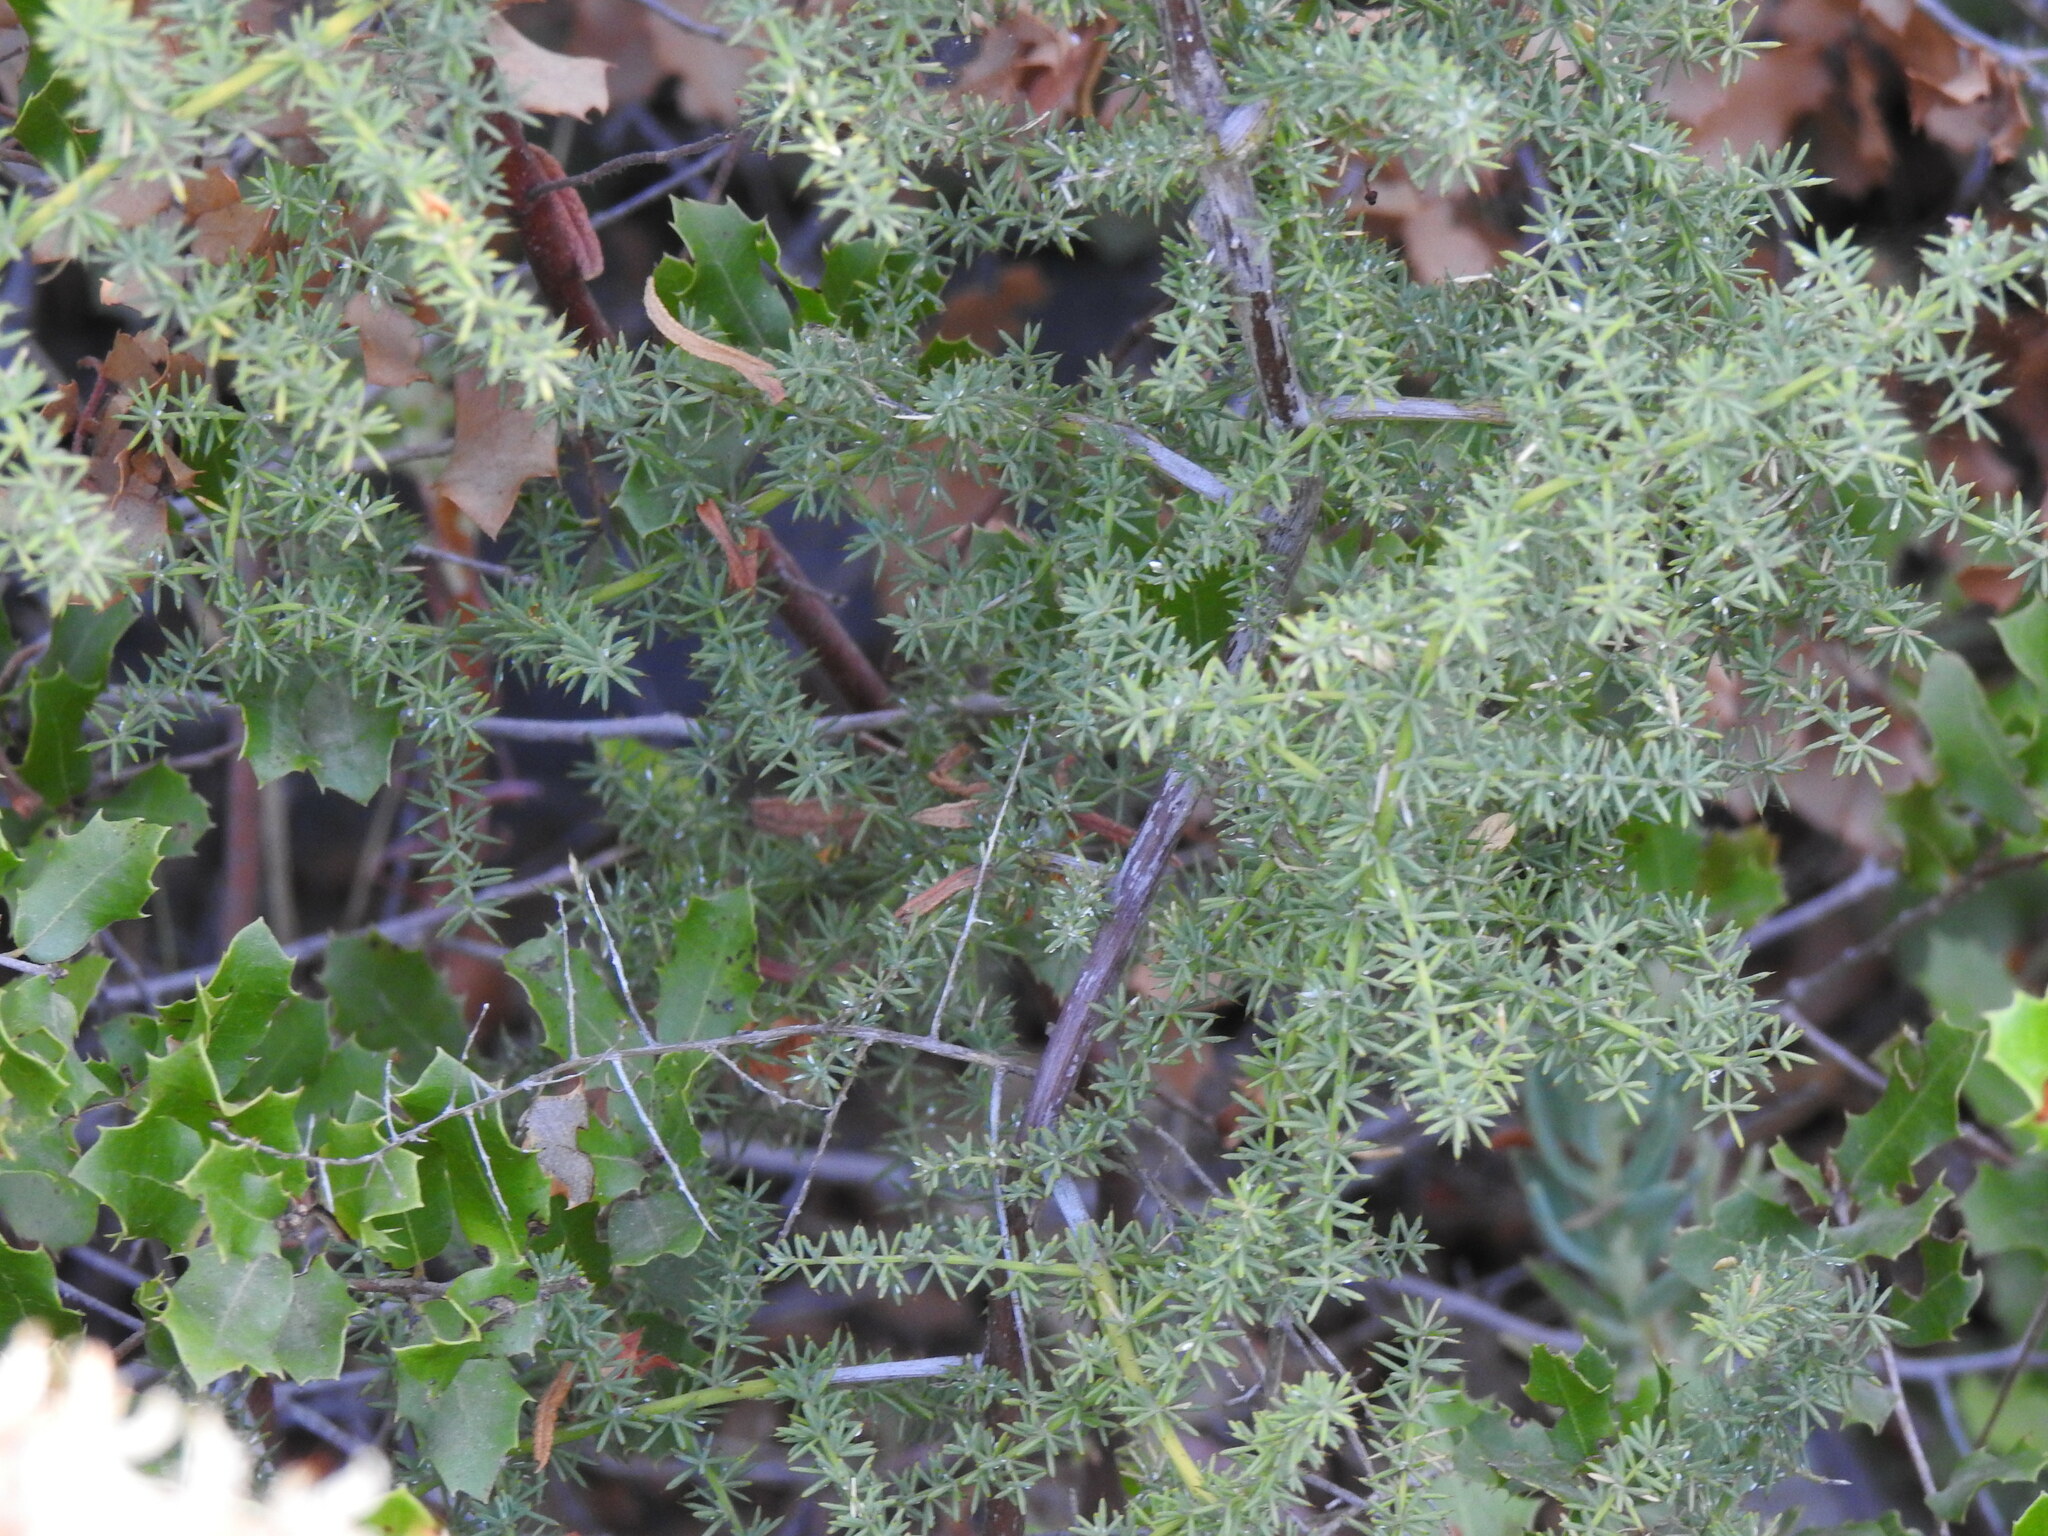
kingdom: Plantae
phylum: Tracheophyta
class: Liliopsida
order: Asparagales
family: Asparagaceae
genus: Asparagus
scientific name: Asparagus acutifolius
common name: Wild asparagus
